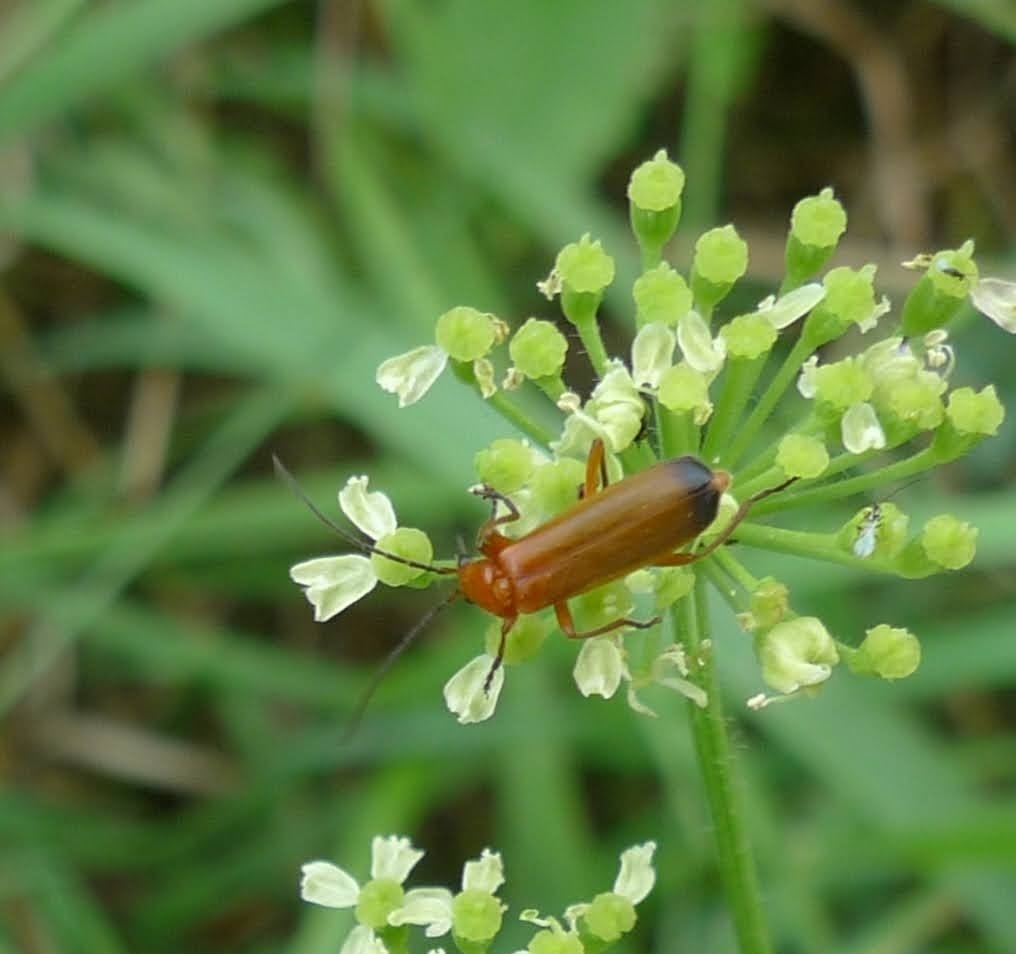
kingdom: Animalia
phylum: Arthropoda
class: Insecta
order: Coleoptera
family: Cantharidae
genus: Rhagonycha
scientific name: Rhagonycha fulva
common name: Common red soldier beetle
